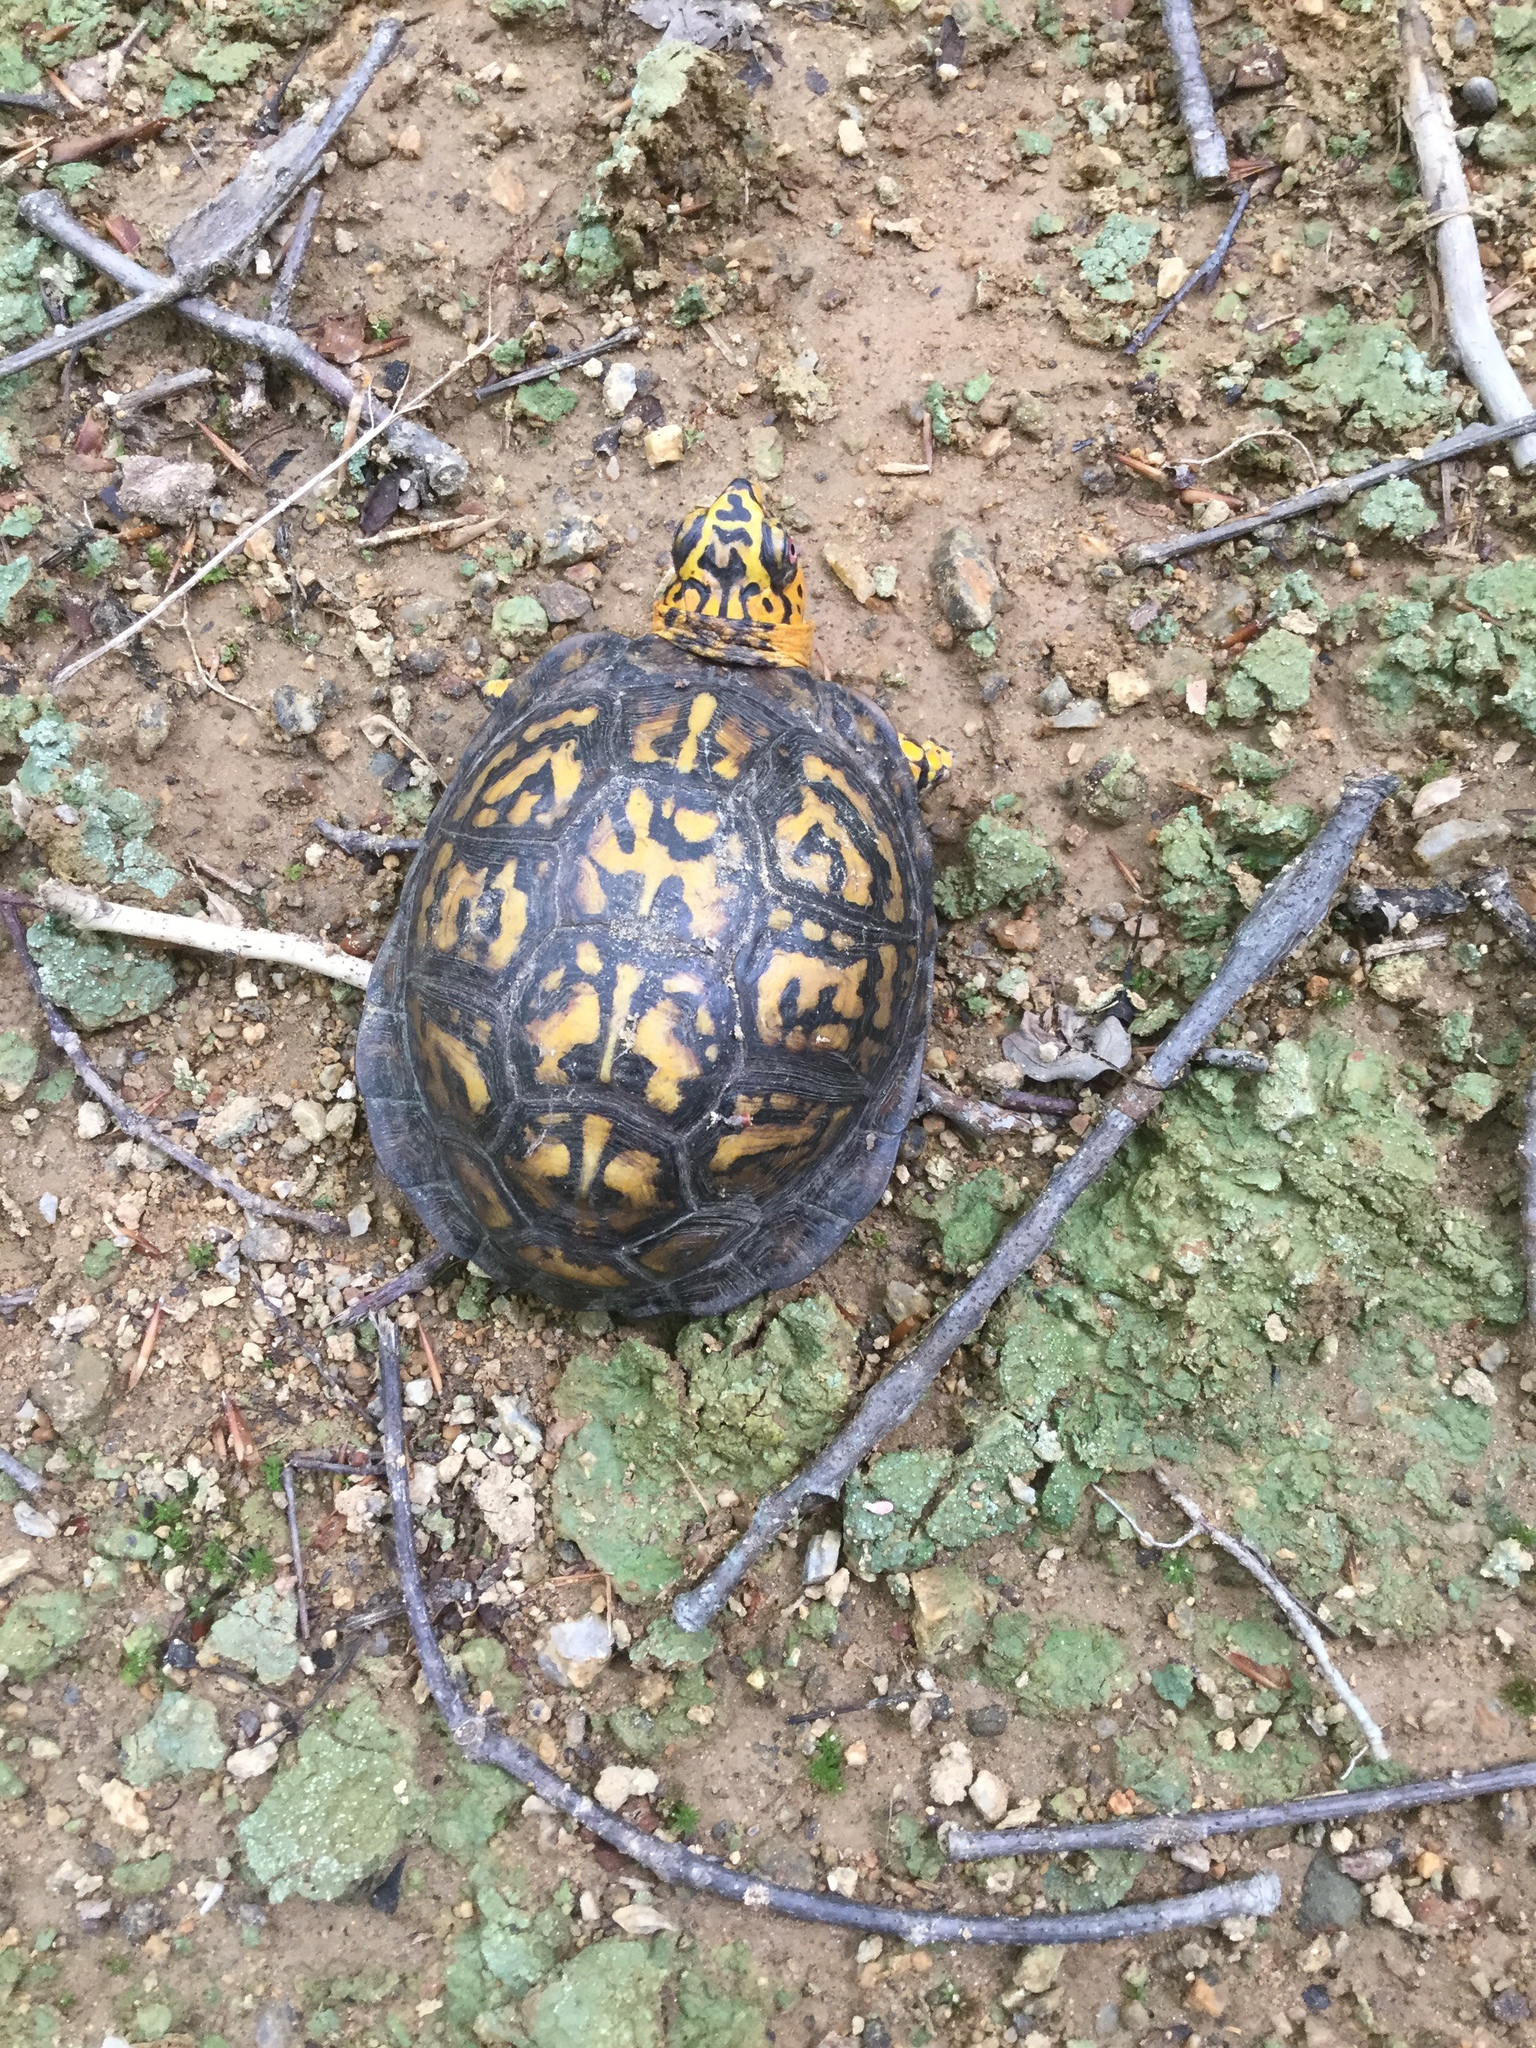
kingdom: Animalia
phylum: Chordata
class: Testudines
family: Emydidae
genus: Terrapene
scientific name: Terrapene carolina
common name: Common box turtle
